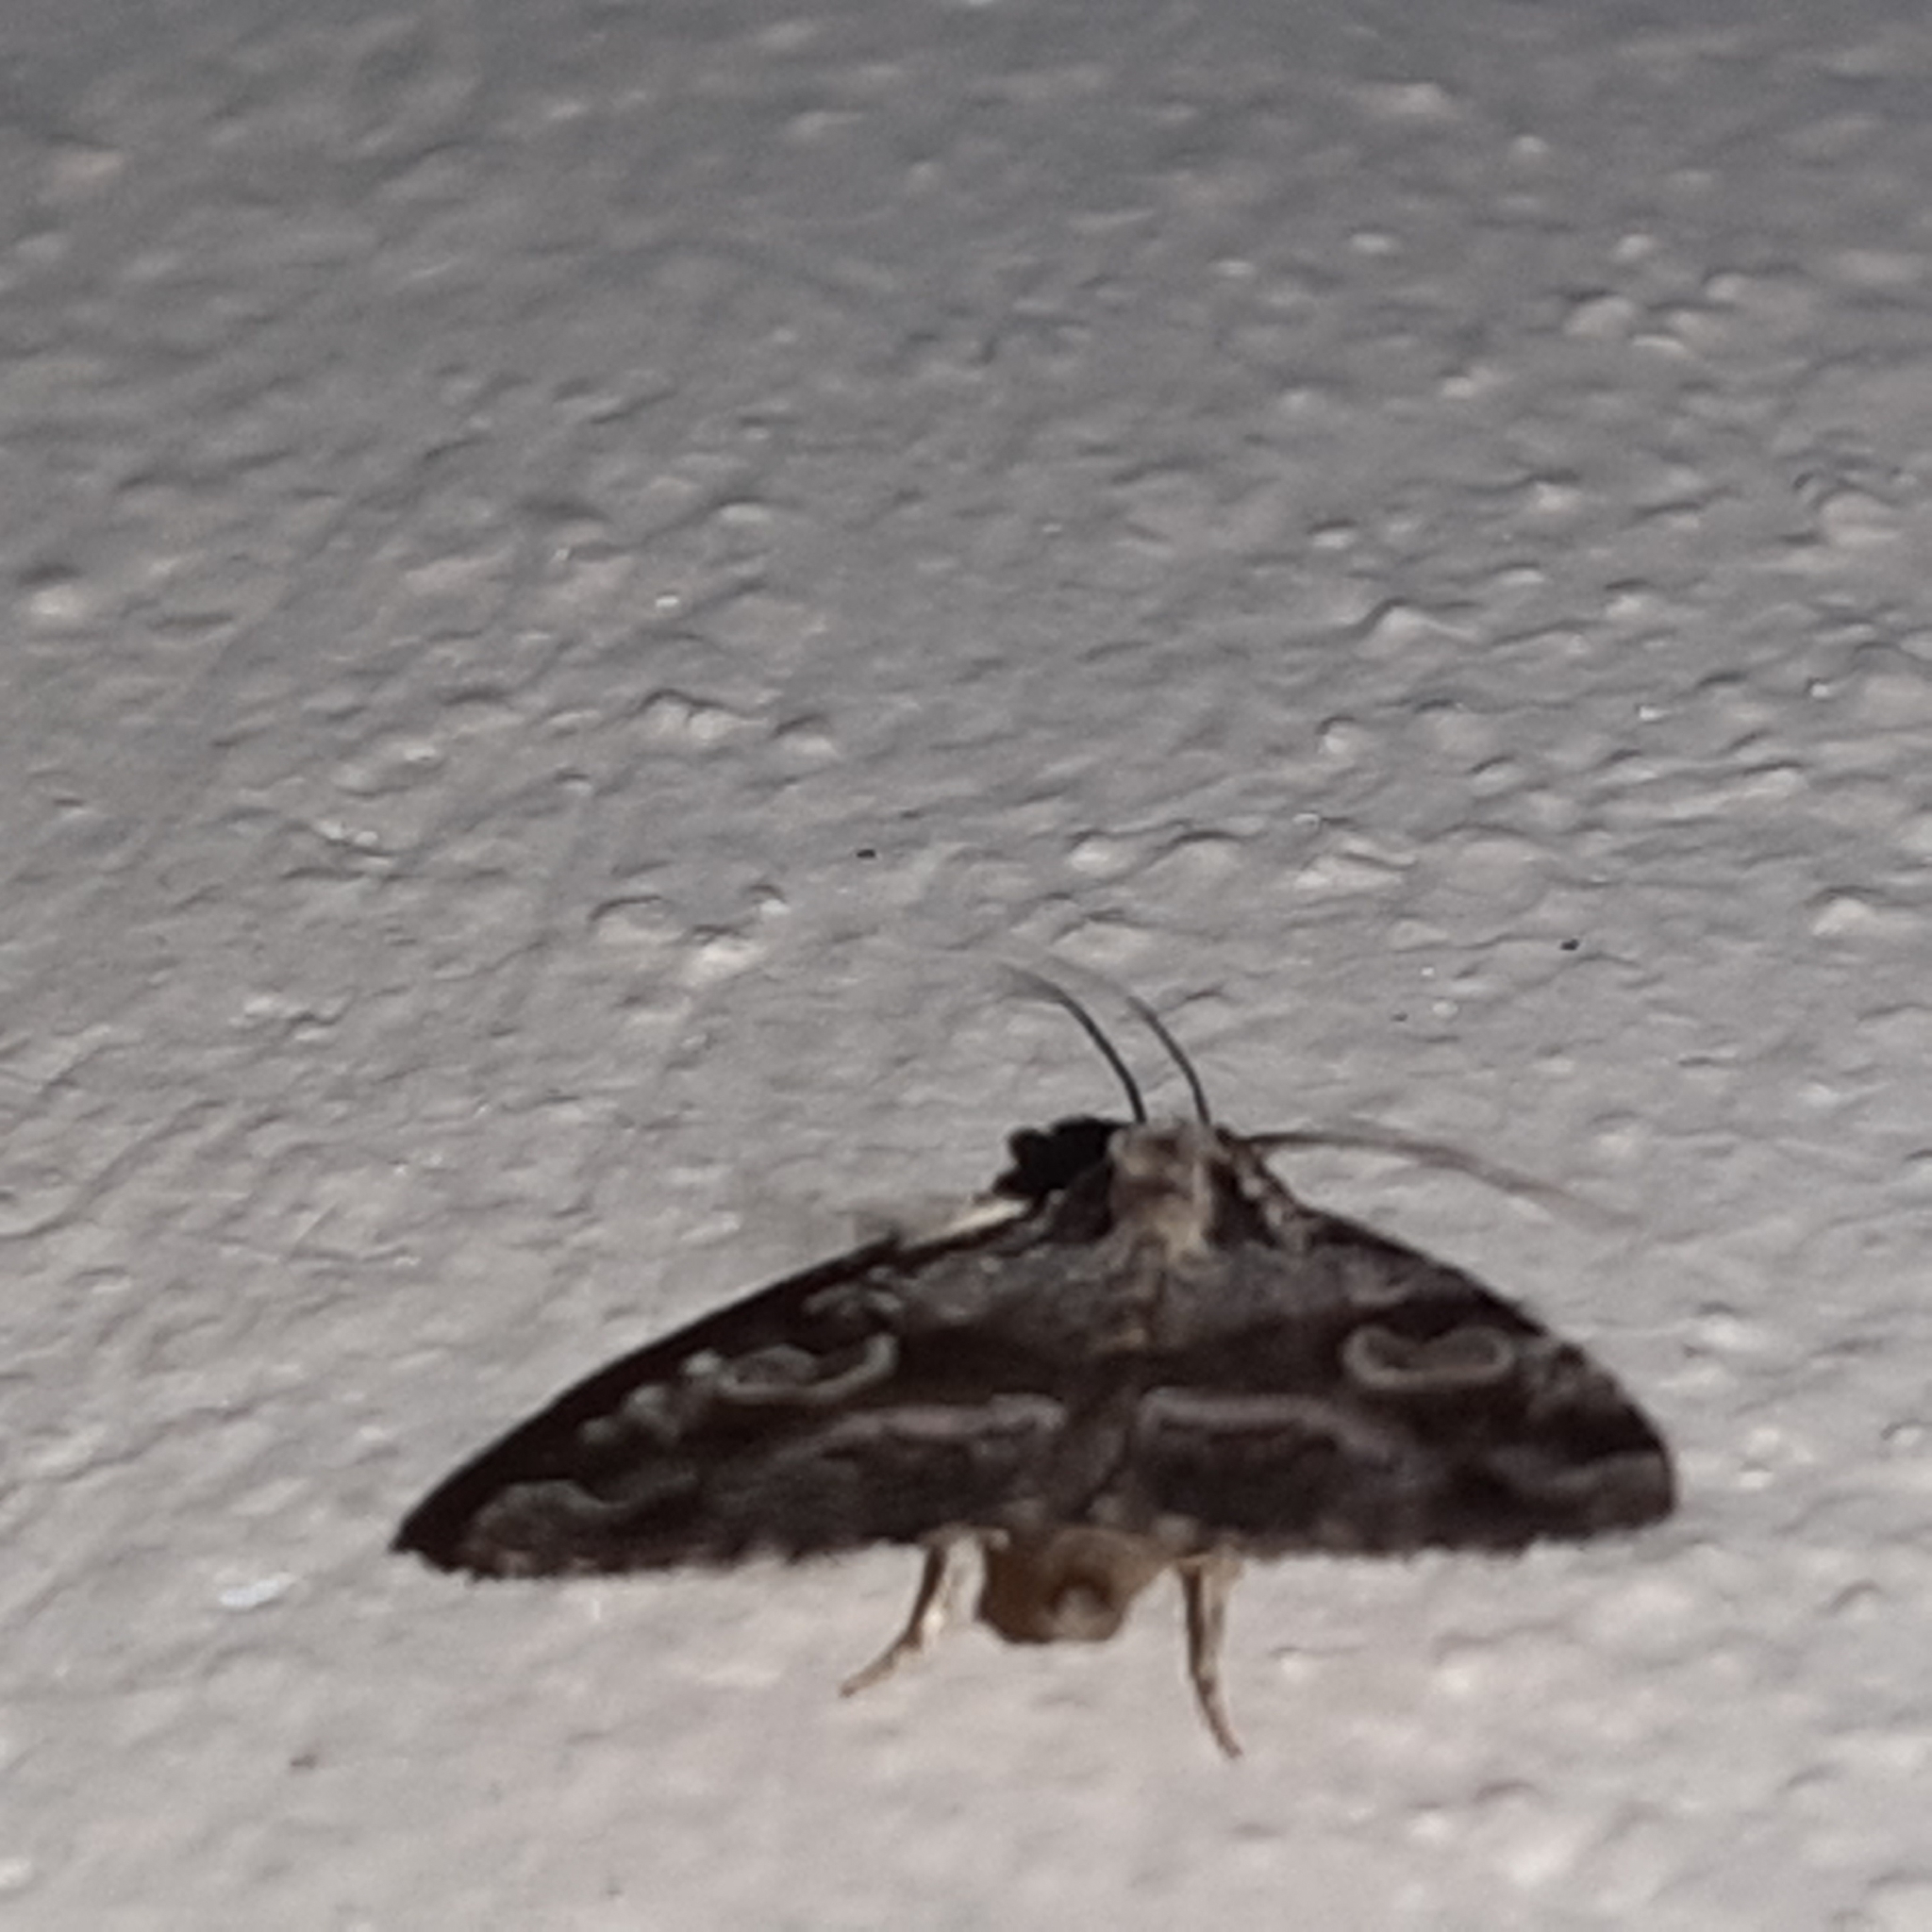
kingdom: Animalia
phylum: Arthropoda
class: Insecta
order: Lepidoptera
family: Noctuidae
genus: Mictochroa
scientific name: Mictochroa zonella
